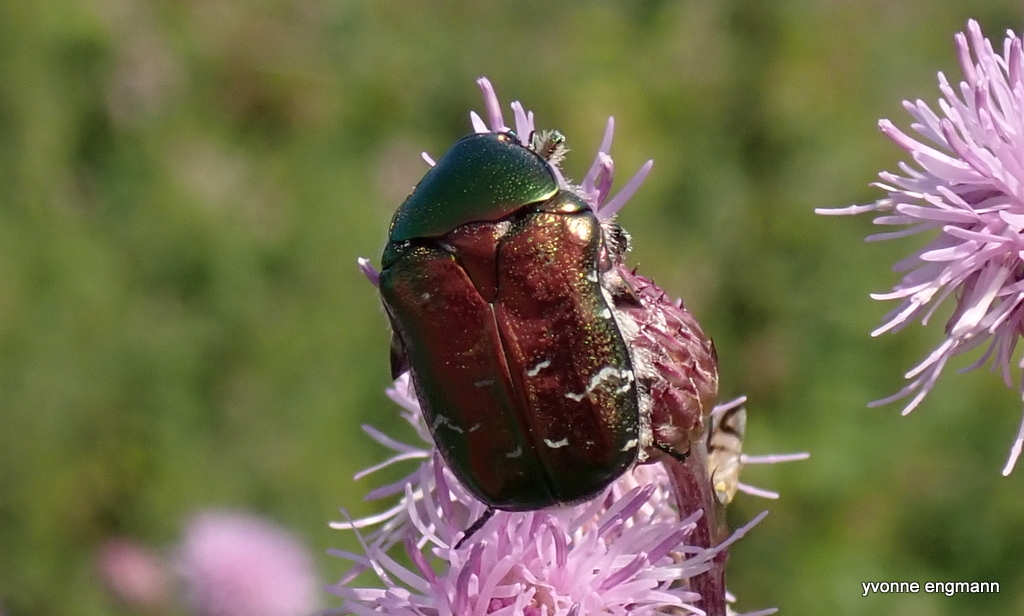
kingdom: Animalia
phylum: Arthropoda
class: Insecta
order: Coleoptera
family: Scarabaeidae
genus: Cetonia
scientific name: Cetonia aurata
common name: Rose chafer
